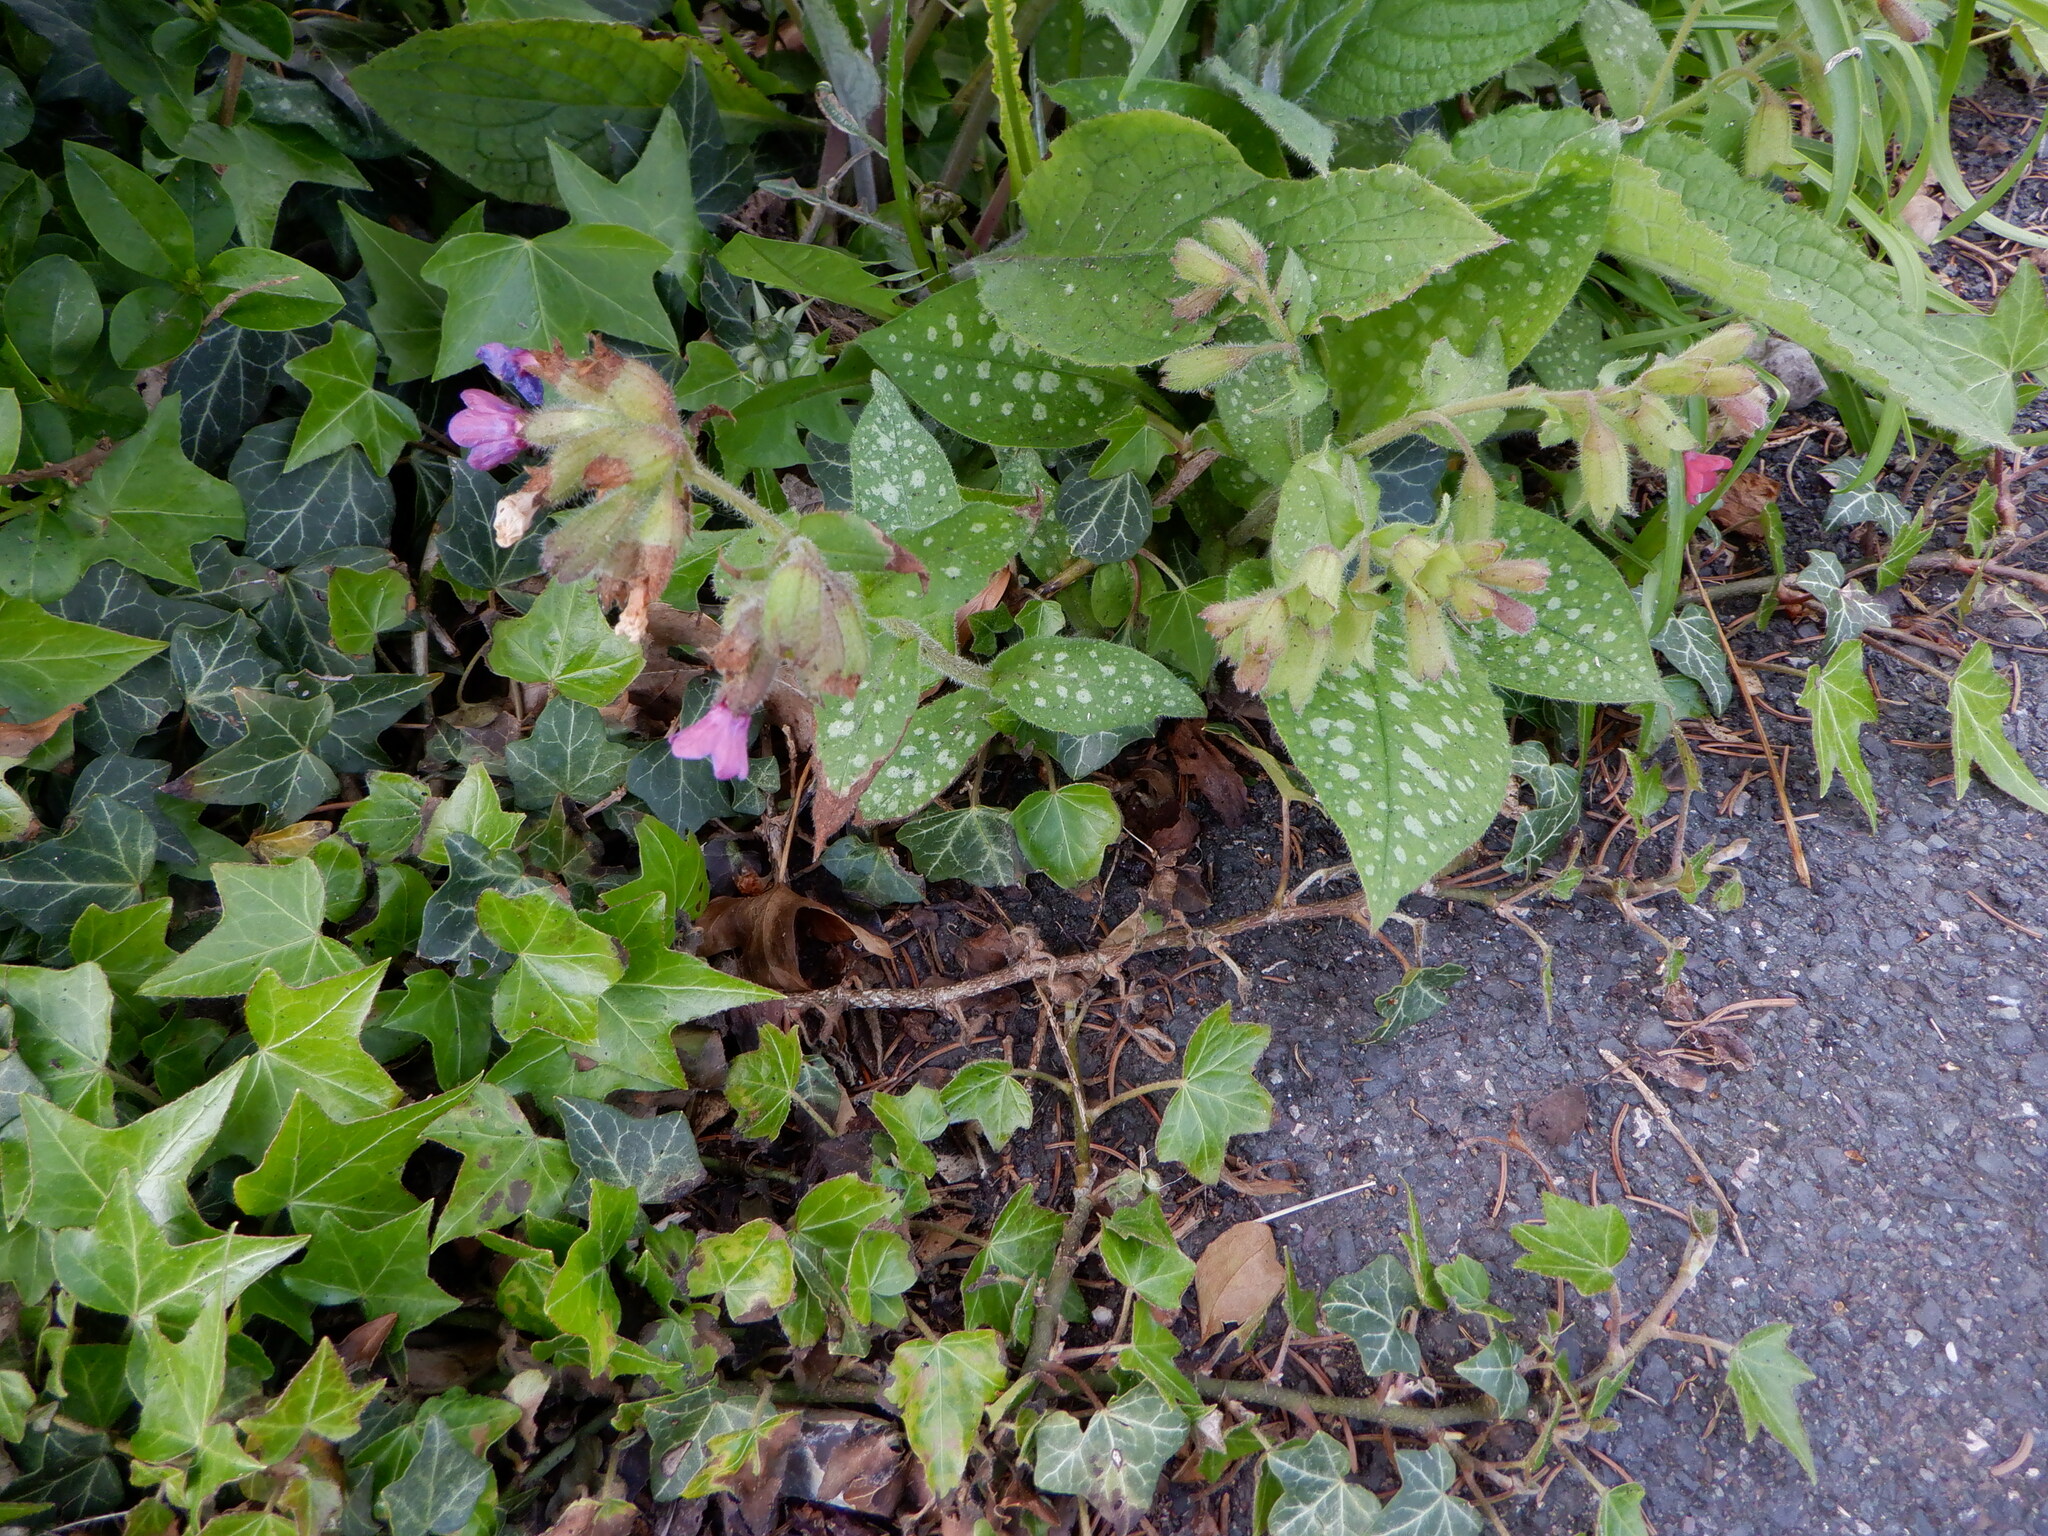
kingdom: Plantae
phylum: Tracheophyta
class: Magnoliopsida
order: Boraginales
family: Boraginaceae
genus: Pulmonaria
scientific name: Pulmonaria officinalis
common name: Lungwort
